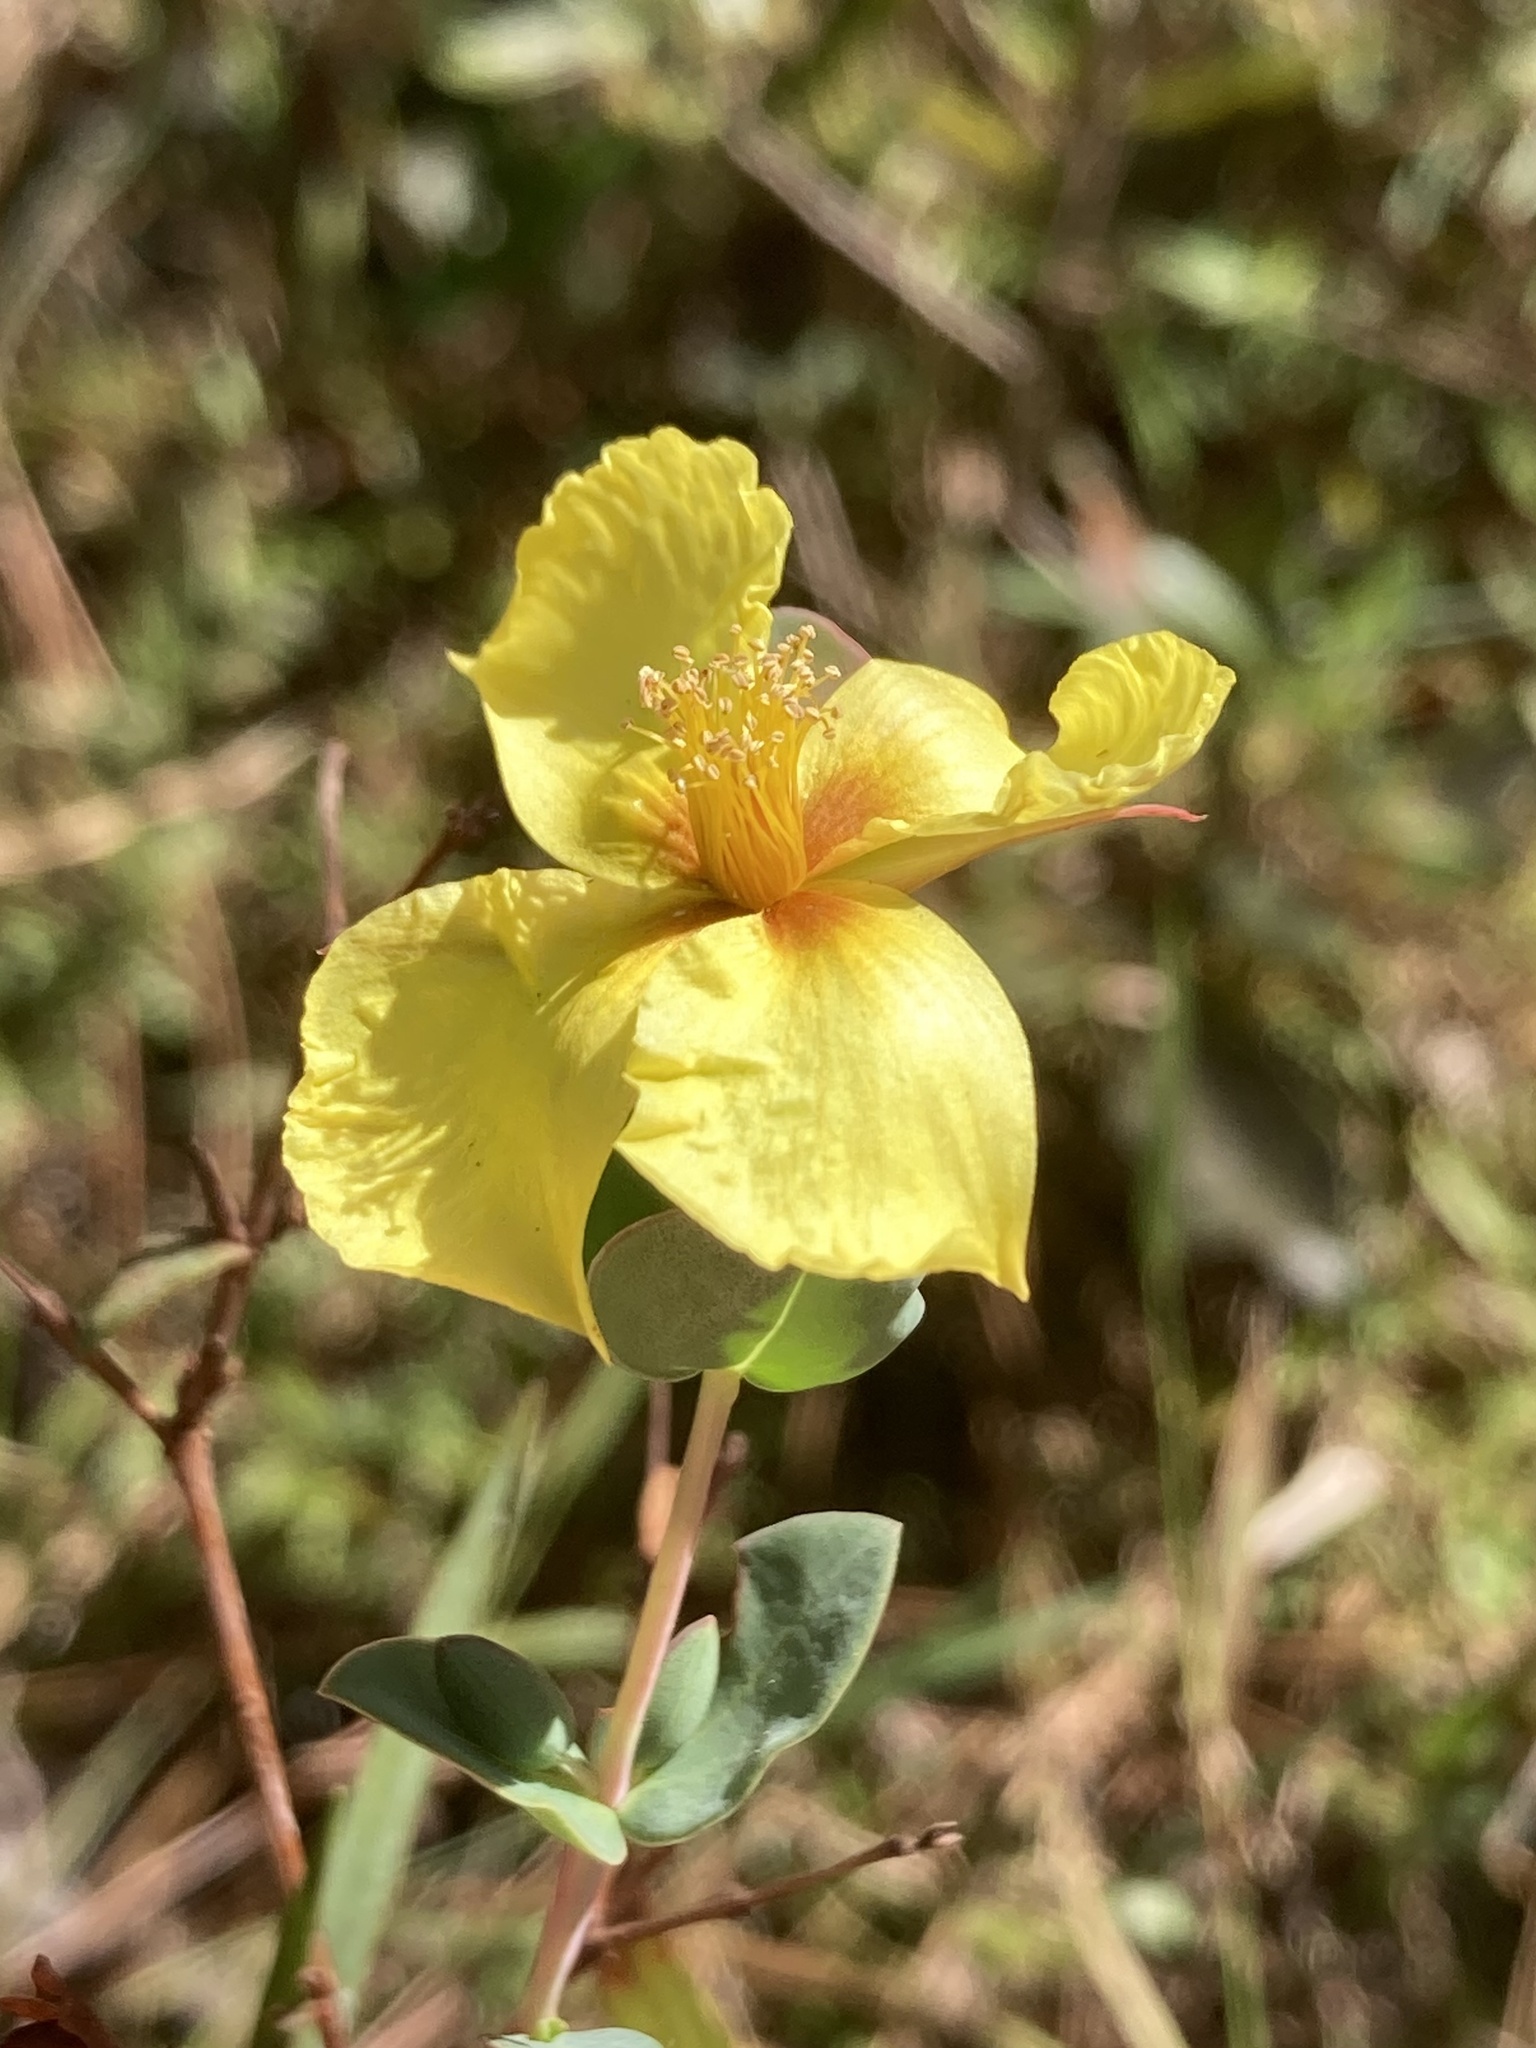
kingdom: Plantae
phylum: Tracheophyta
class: Magnoliopsida
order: Malpighiales
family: Hypericaceae
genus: Hypericum
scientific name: Hypericum tetrapetalum
